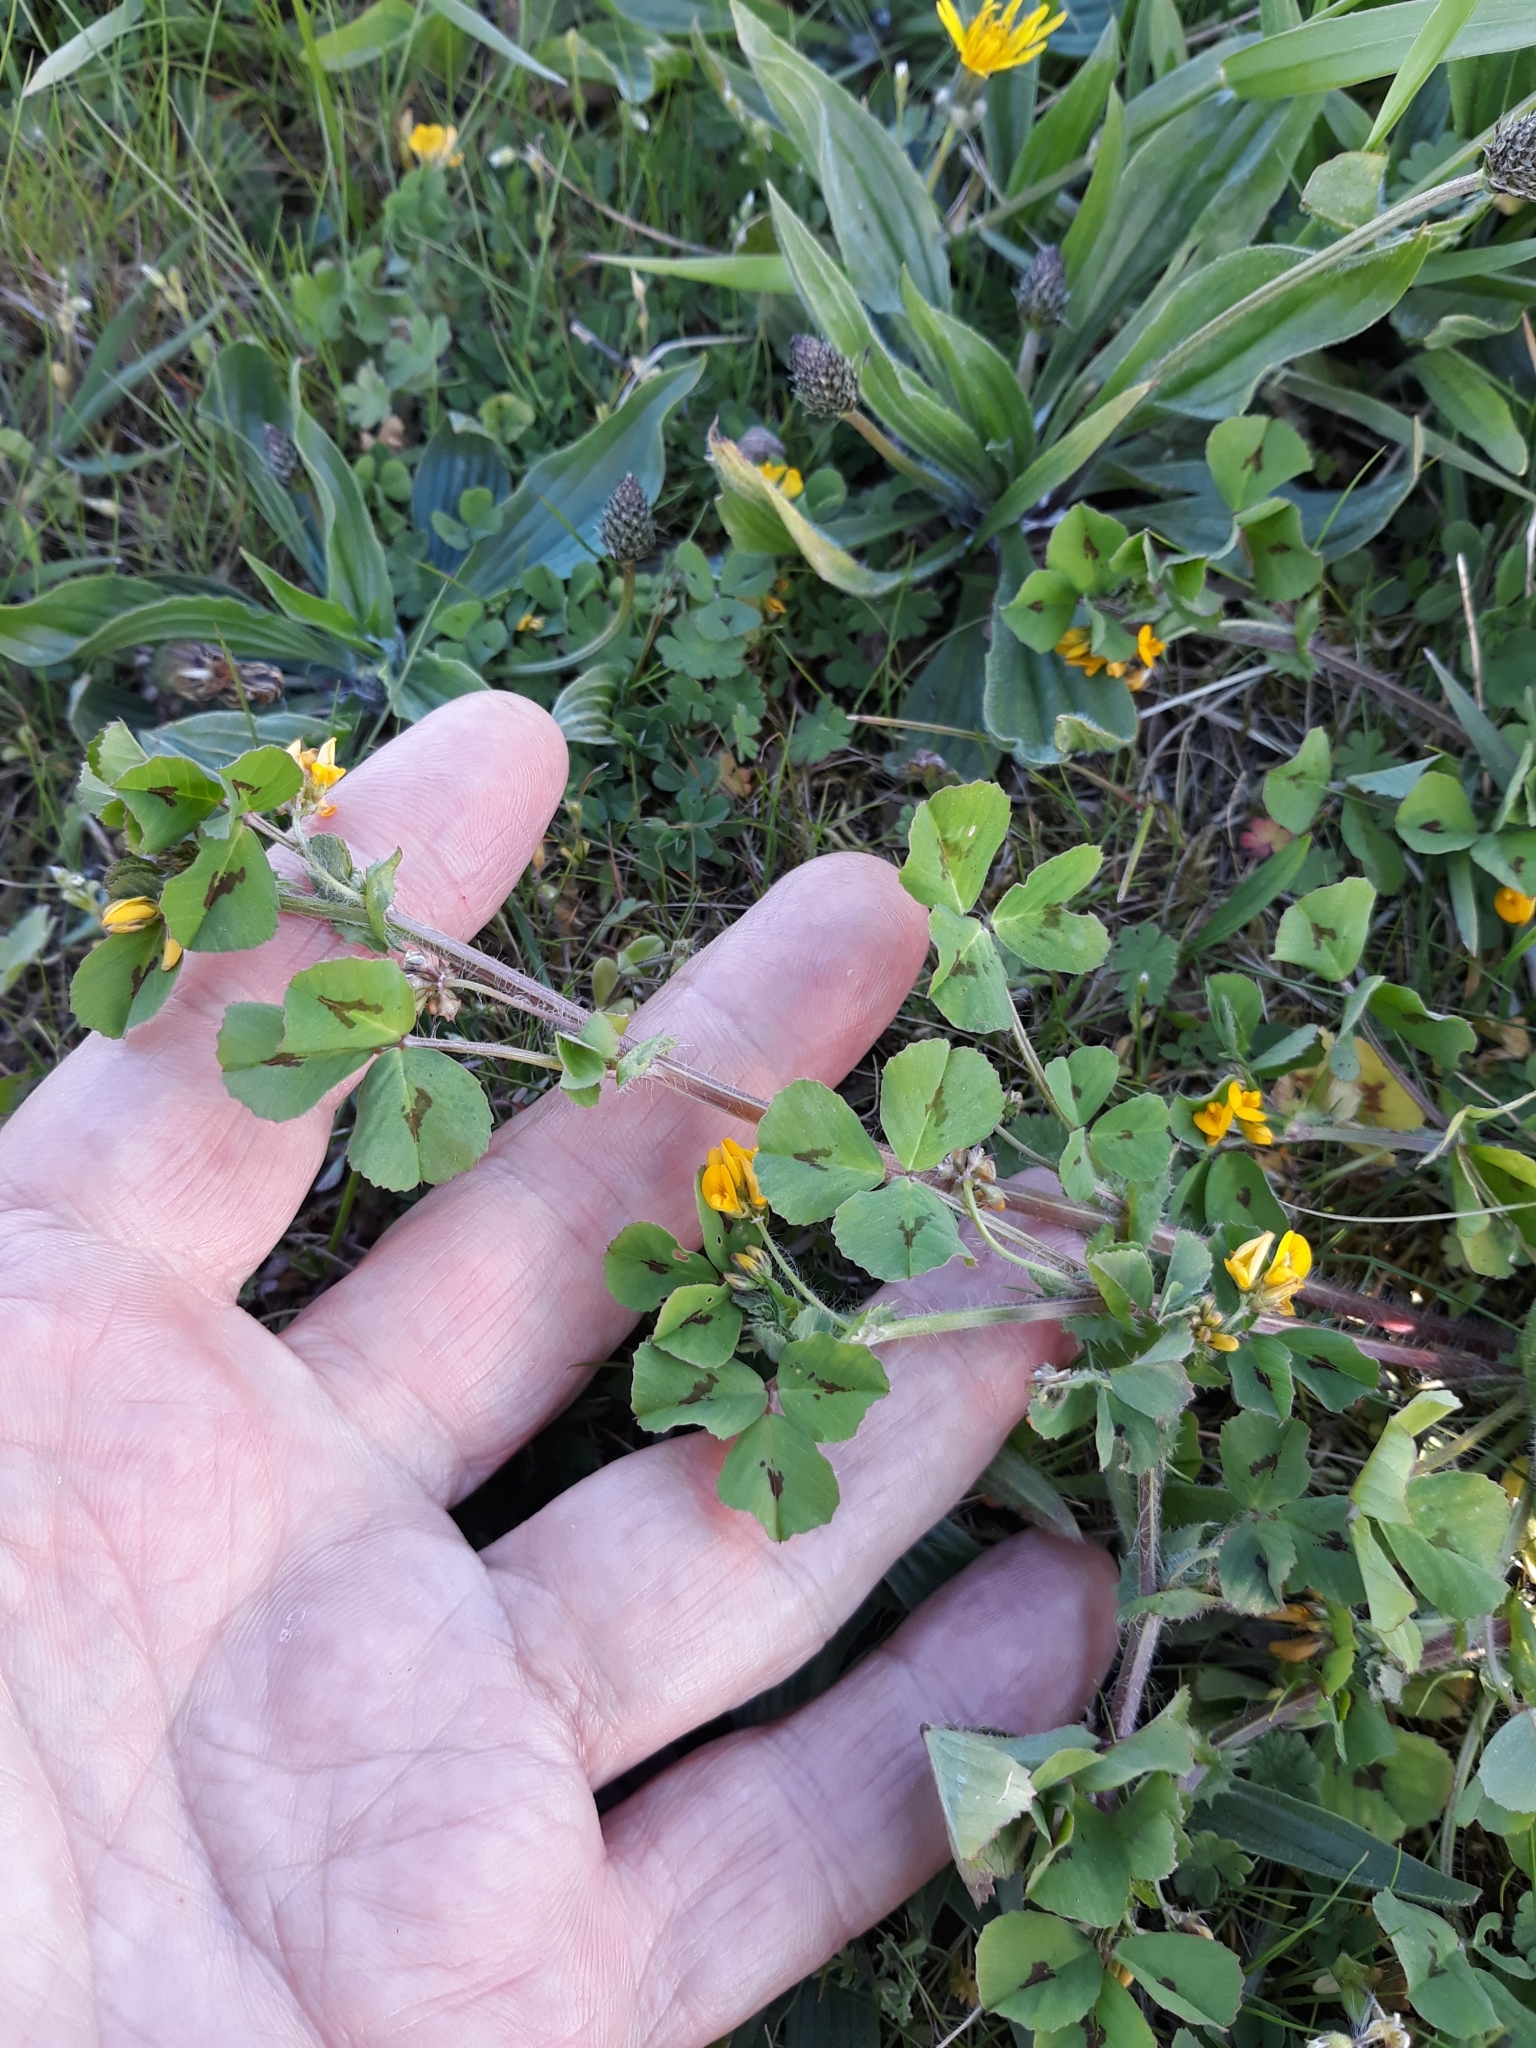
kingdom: Plantae
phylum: Tracheophyta
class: Magnoliopsida
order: Fabales
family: Fabaceae
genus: Medicago
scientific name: Medicago arabica
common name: Spotted medick
